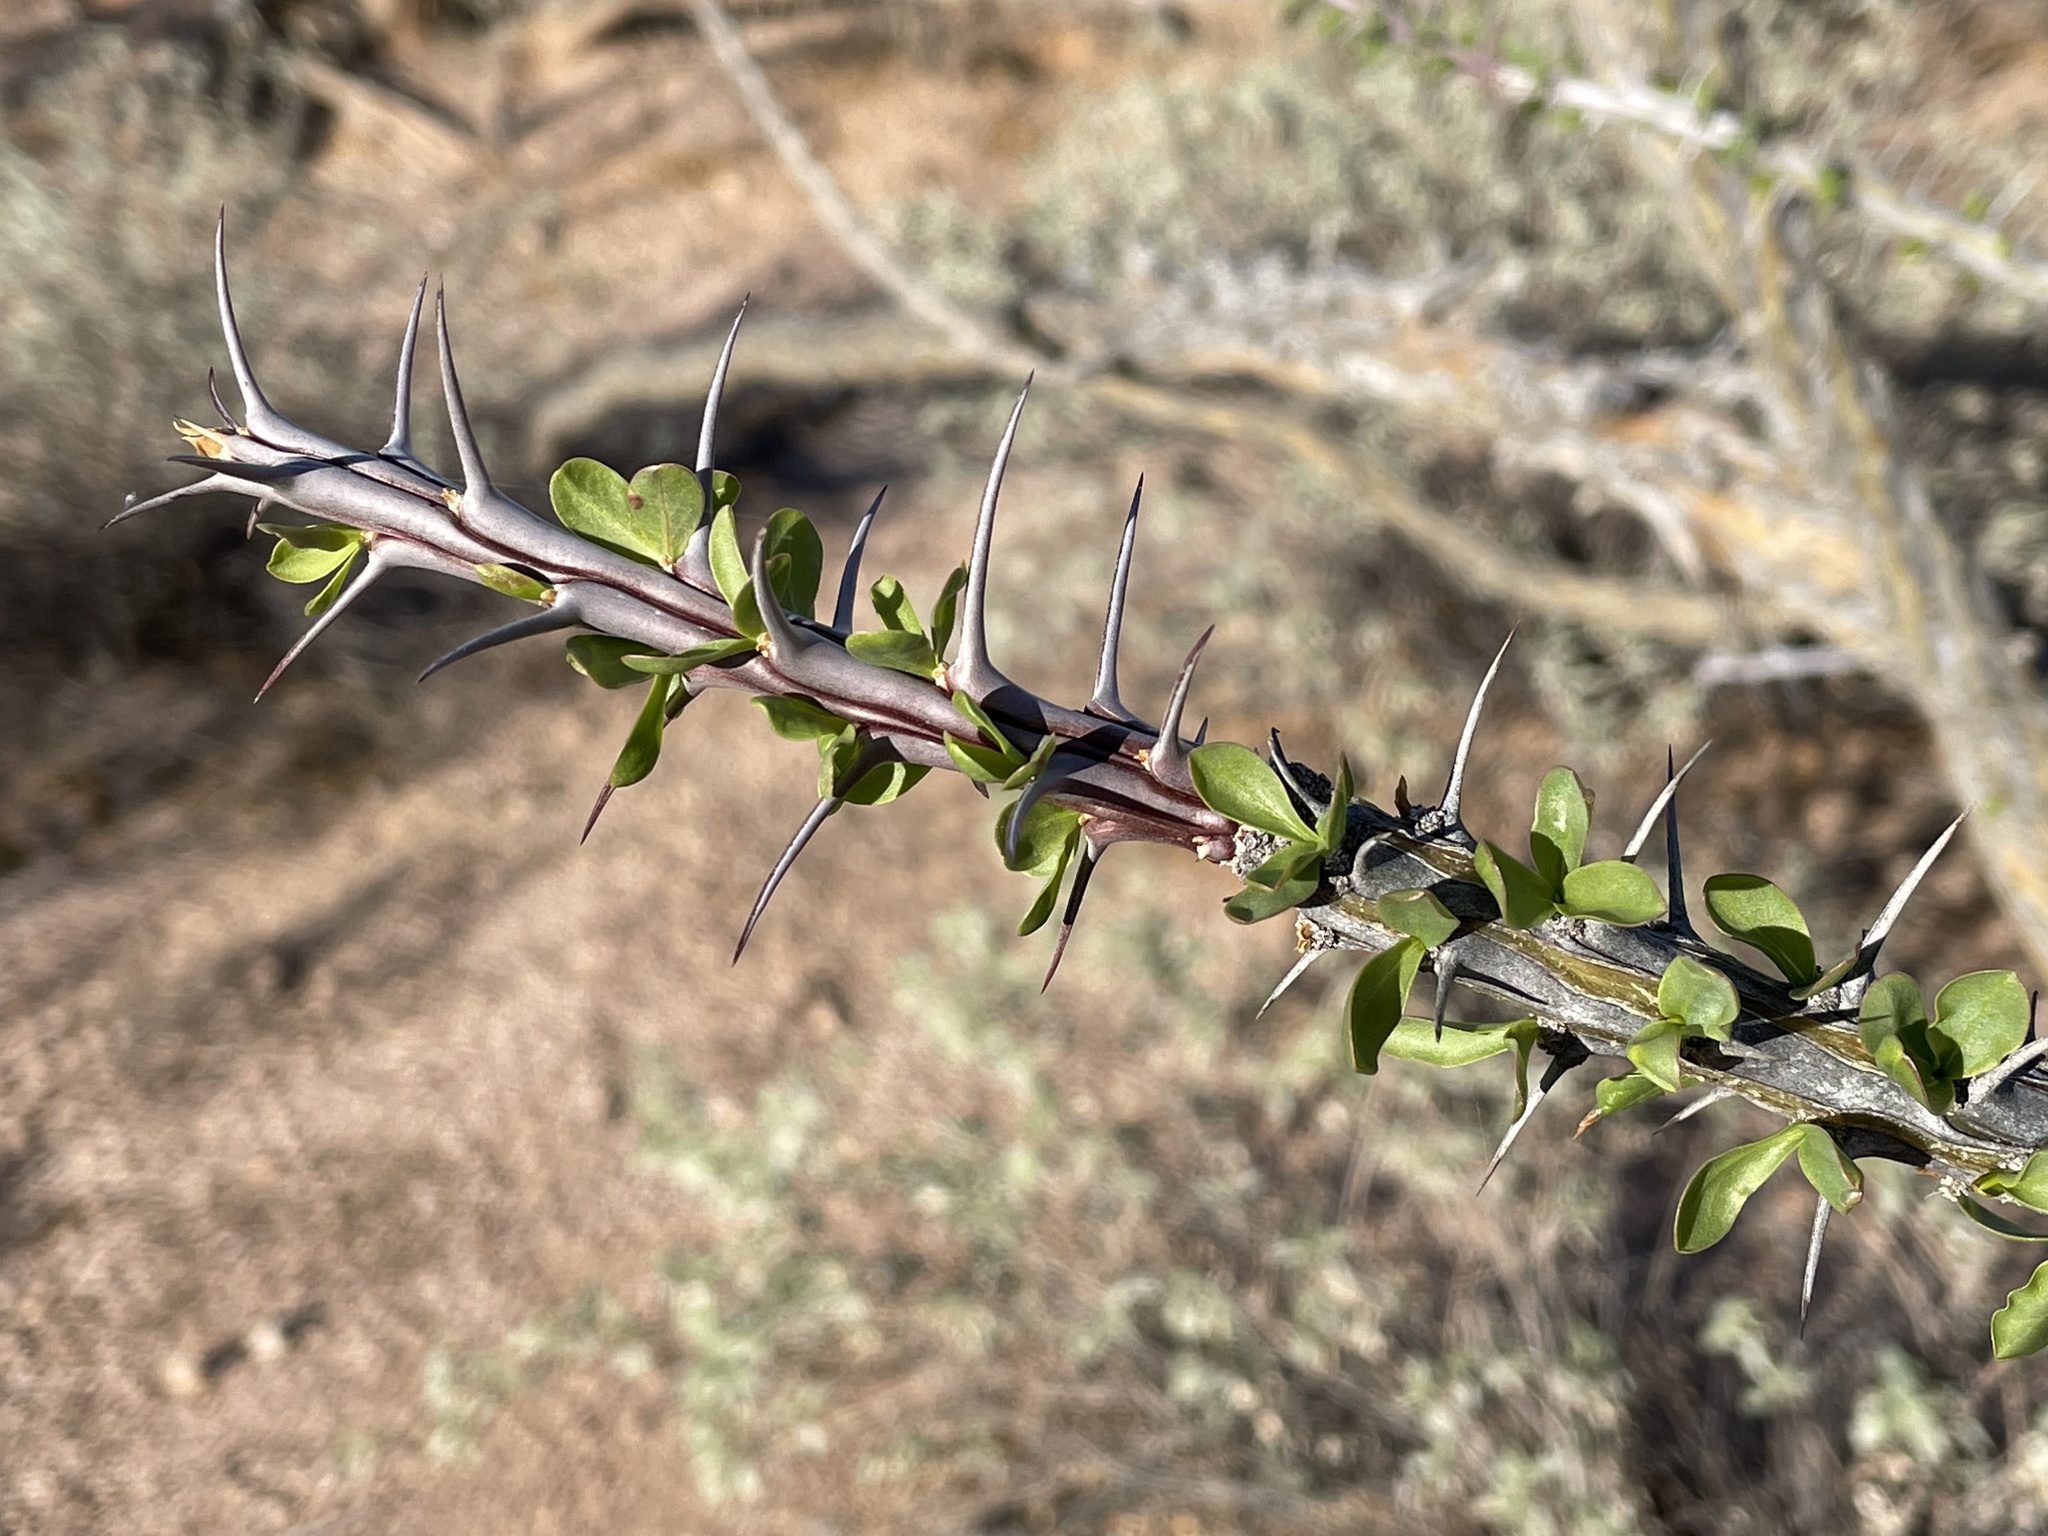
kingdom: Plantae
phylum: Tracheophyta
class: Magnoliopsida
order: Ericales
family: Fouquieriaceae
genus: Fouquieria
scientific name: Fouquieria splendens
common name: Vine-cactus
